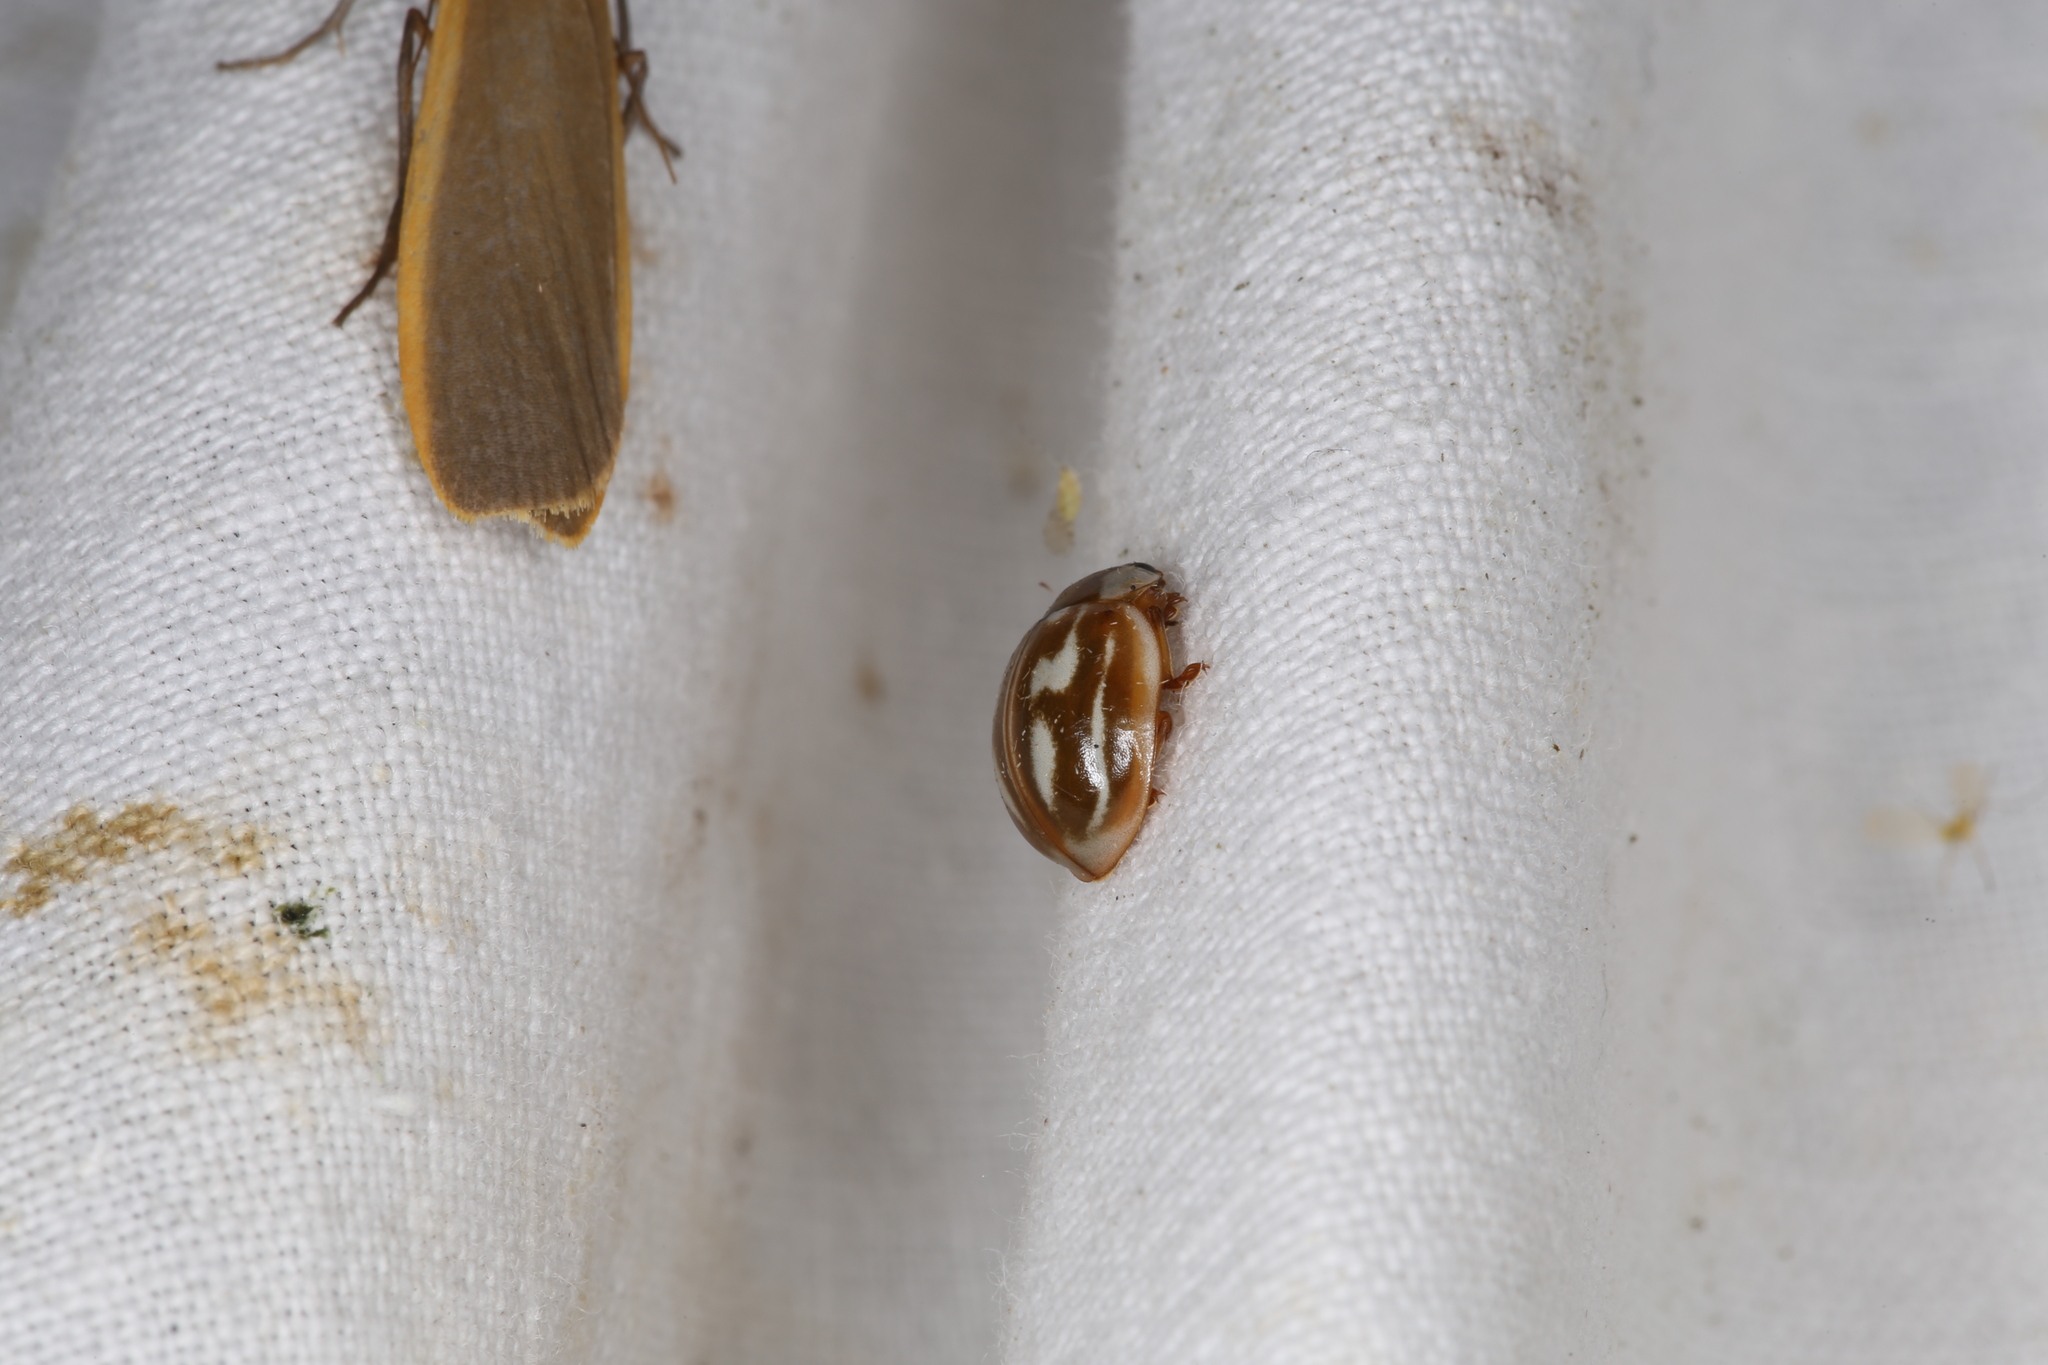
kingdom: Animalia
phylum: Arthropoda
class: Insecta
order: Coleoptera
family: Coccinellidae
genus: Myzia
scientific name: Myzia oblongoguttata
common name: Striped ladybird
